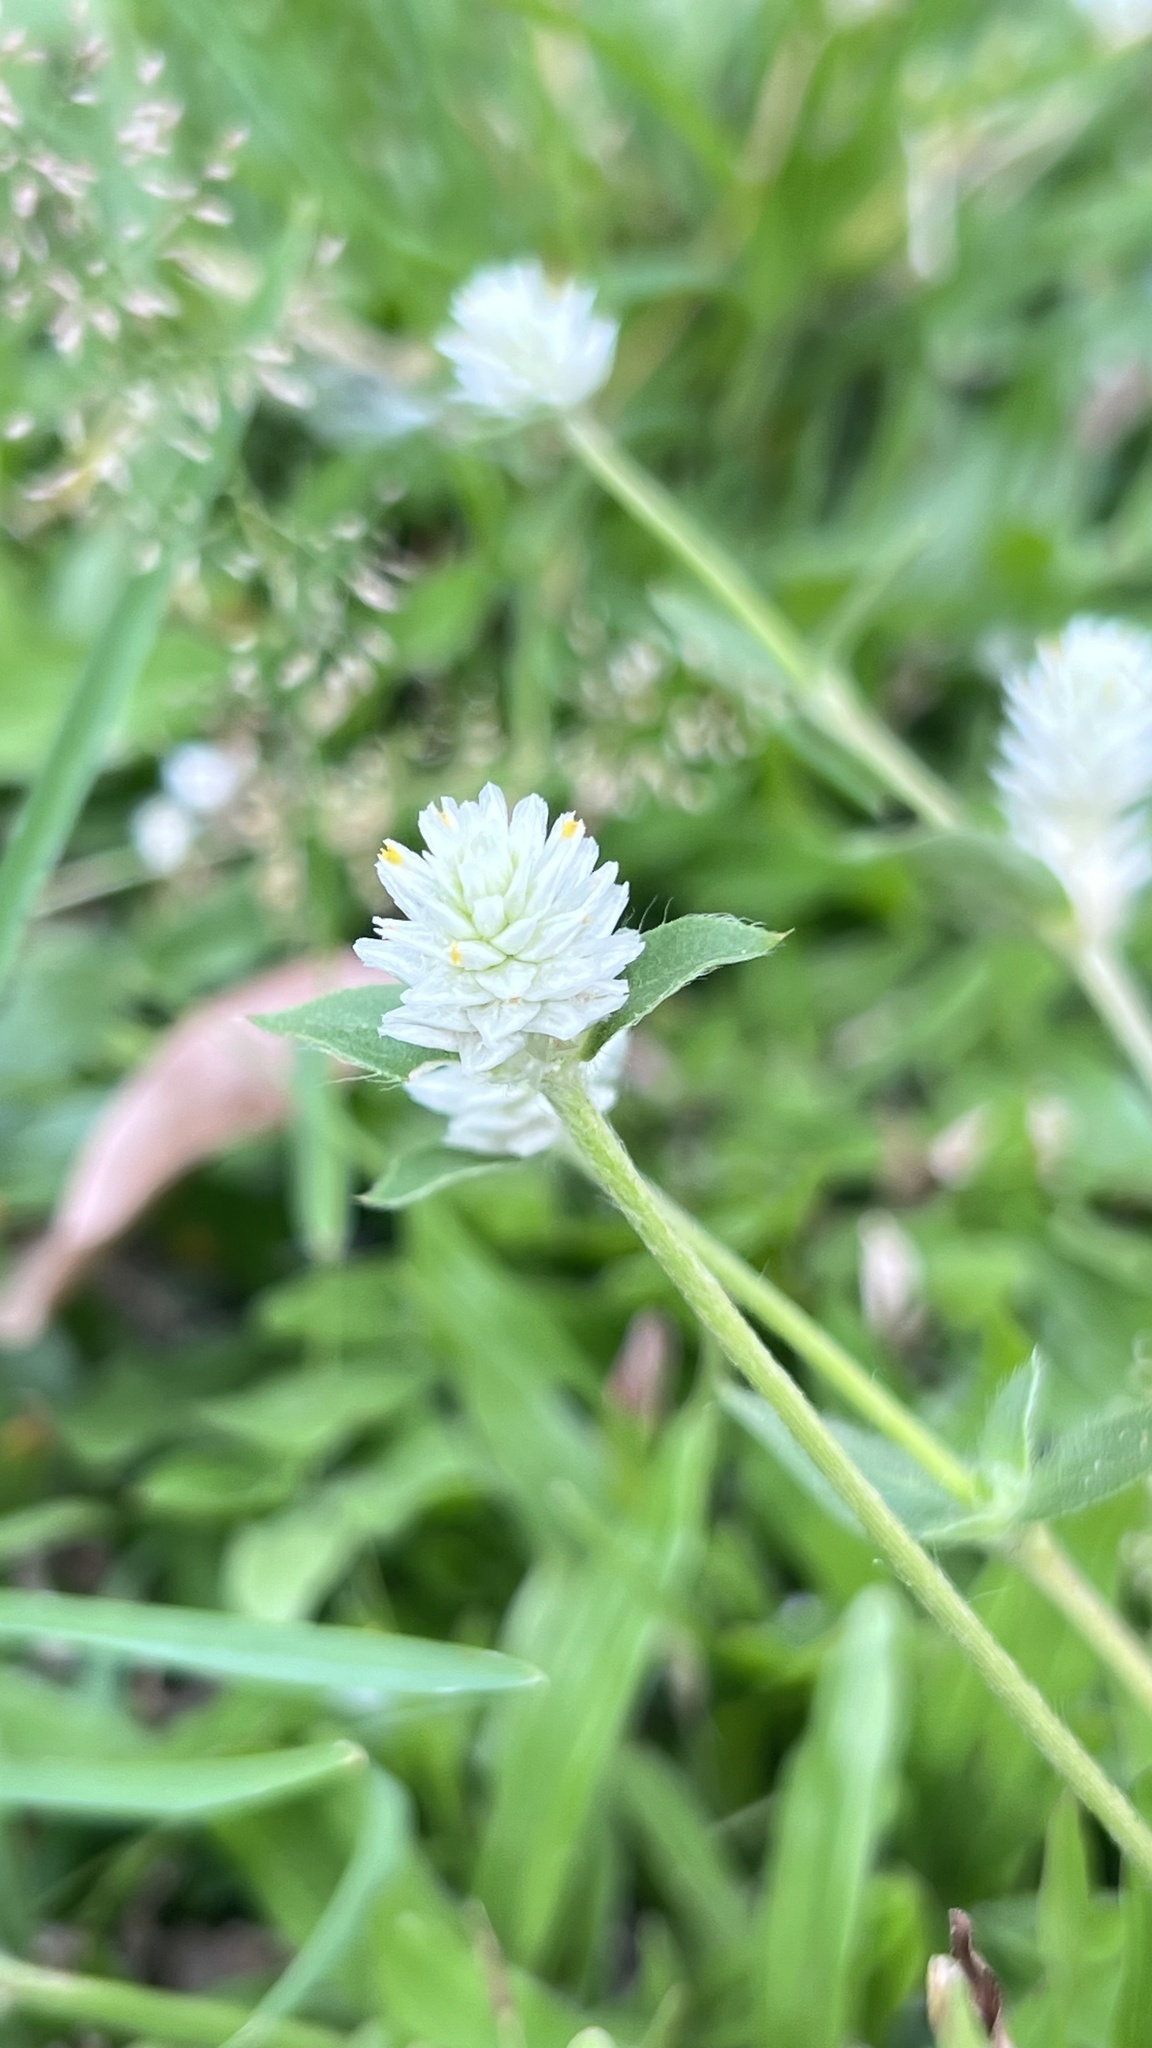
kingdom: Plantae
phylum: Tracheophyta
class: Magnoliopsida
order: Caryophyllales
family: Amaranthaceae
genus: Gomphrena
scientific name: Gomphrena serrata
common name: Arrasa con todo
